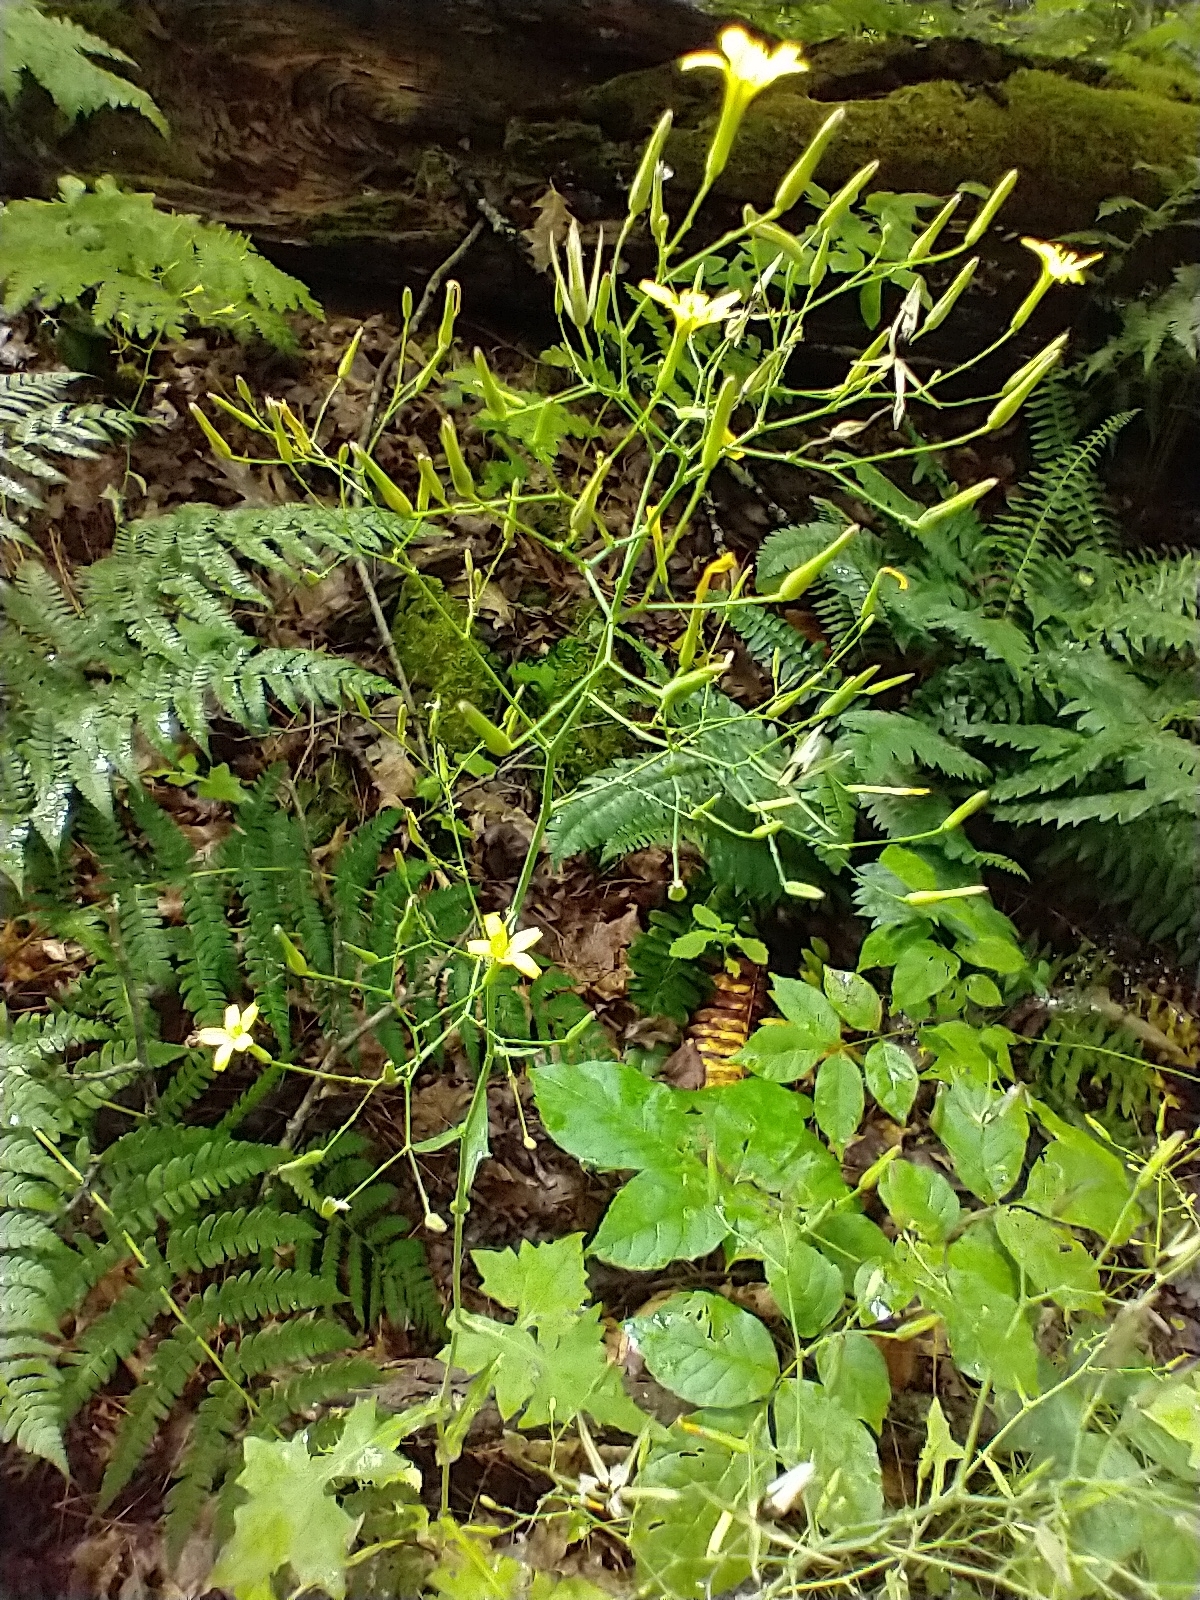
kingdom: Plantae
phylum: Tracheophyta
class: Magnoliopsida
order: Asterales
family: Asteraceae
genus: Mycelis
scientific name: Mycelis muralis
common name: Wall lettuce
